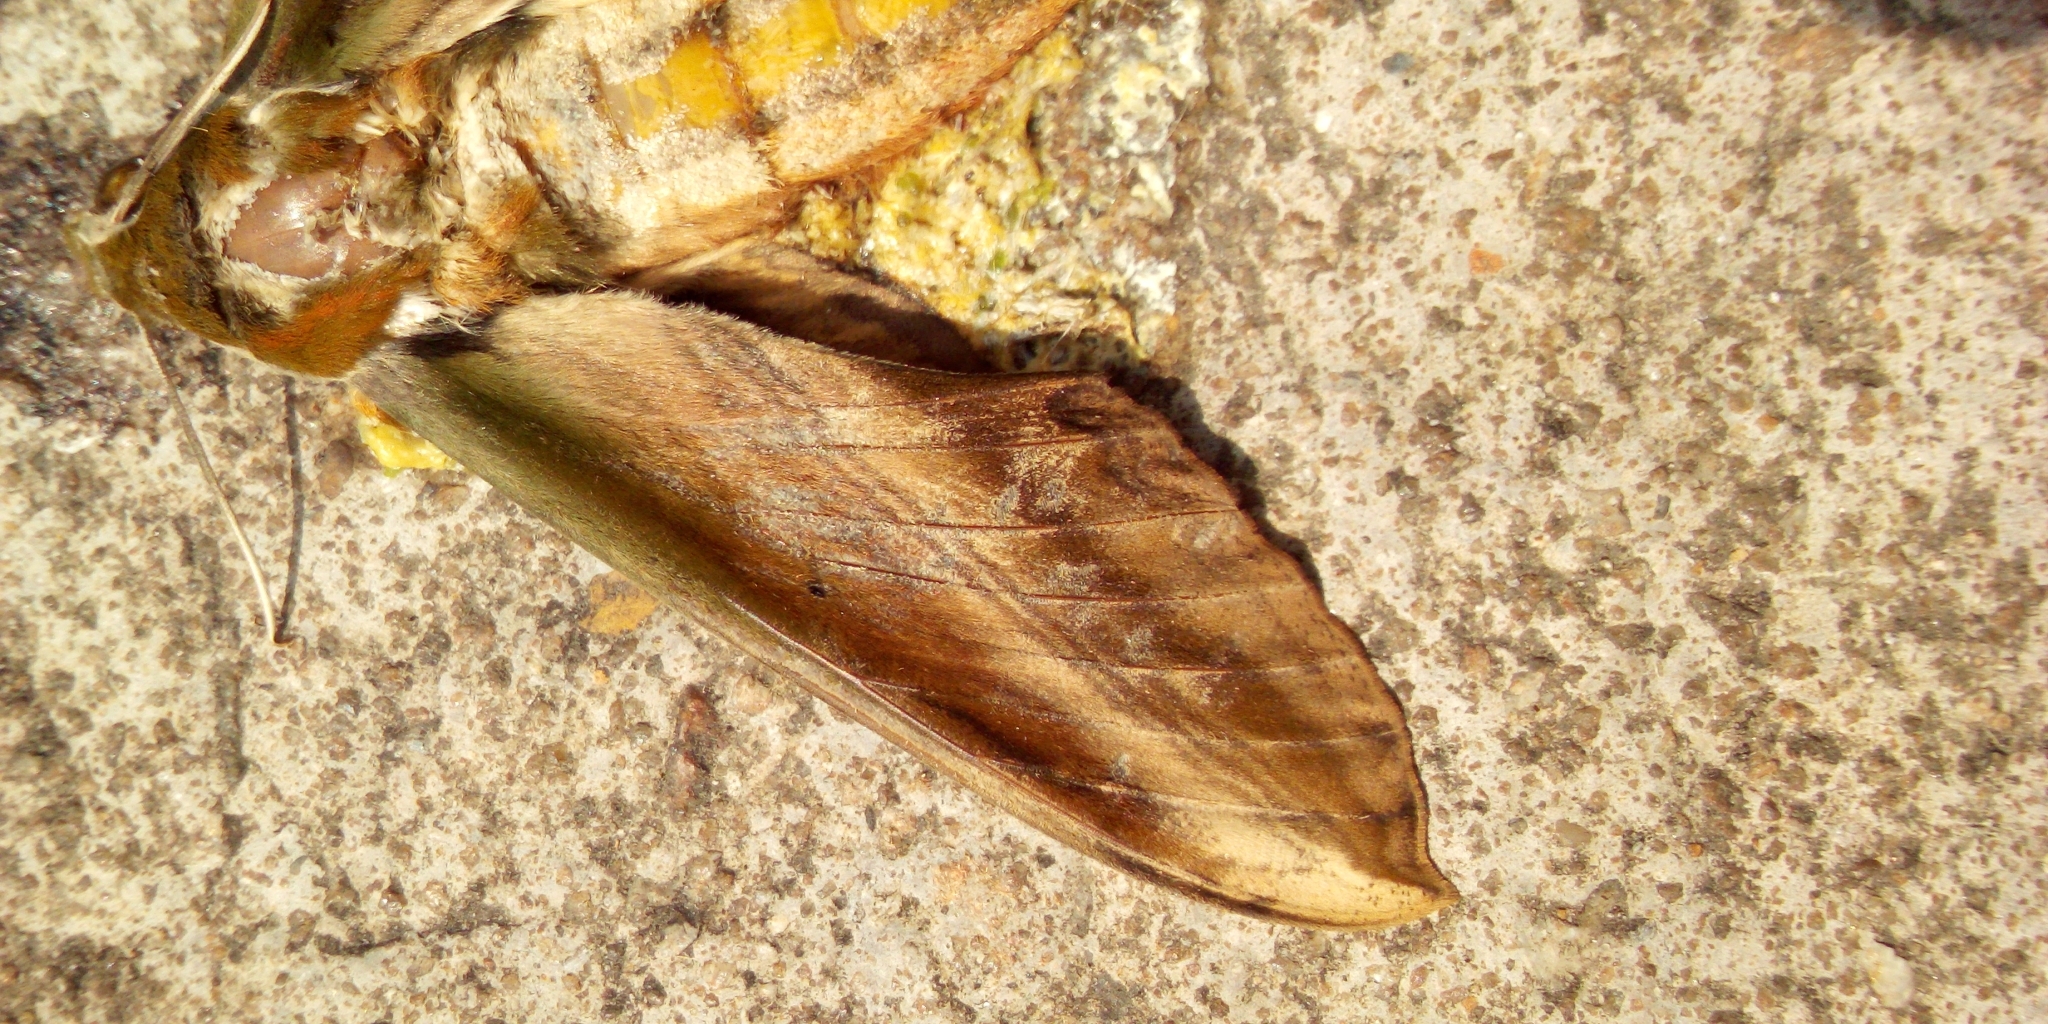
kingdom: Animalia
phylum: Arthropoda
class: Insecta
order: Lepidoptera
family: Sphingidae
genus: Theretra
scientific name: Theretra nessus
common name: Yam hawk moth
